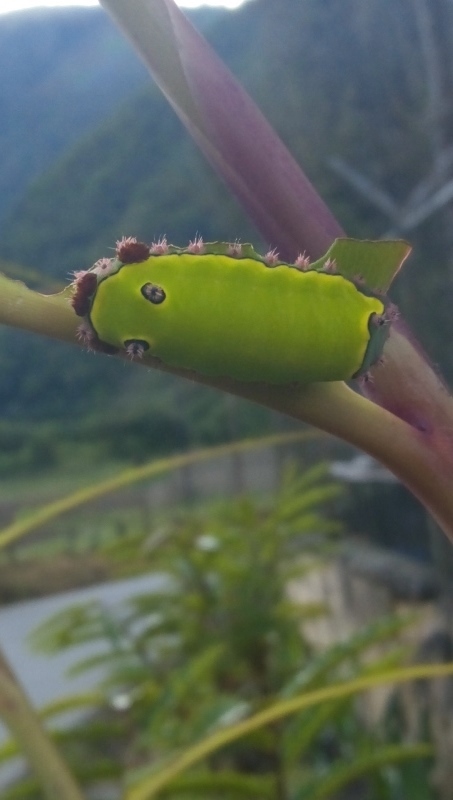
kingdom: Animalia
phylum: Arthropoda
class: Insecta
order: Lepidoptera
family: Limacodidae
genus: Acharia
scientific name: Acharia
